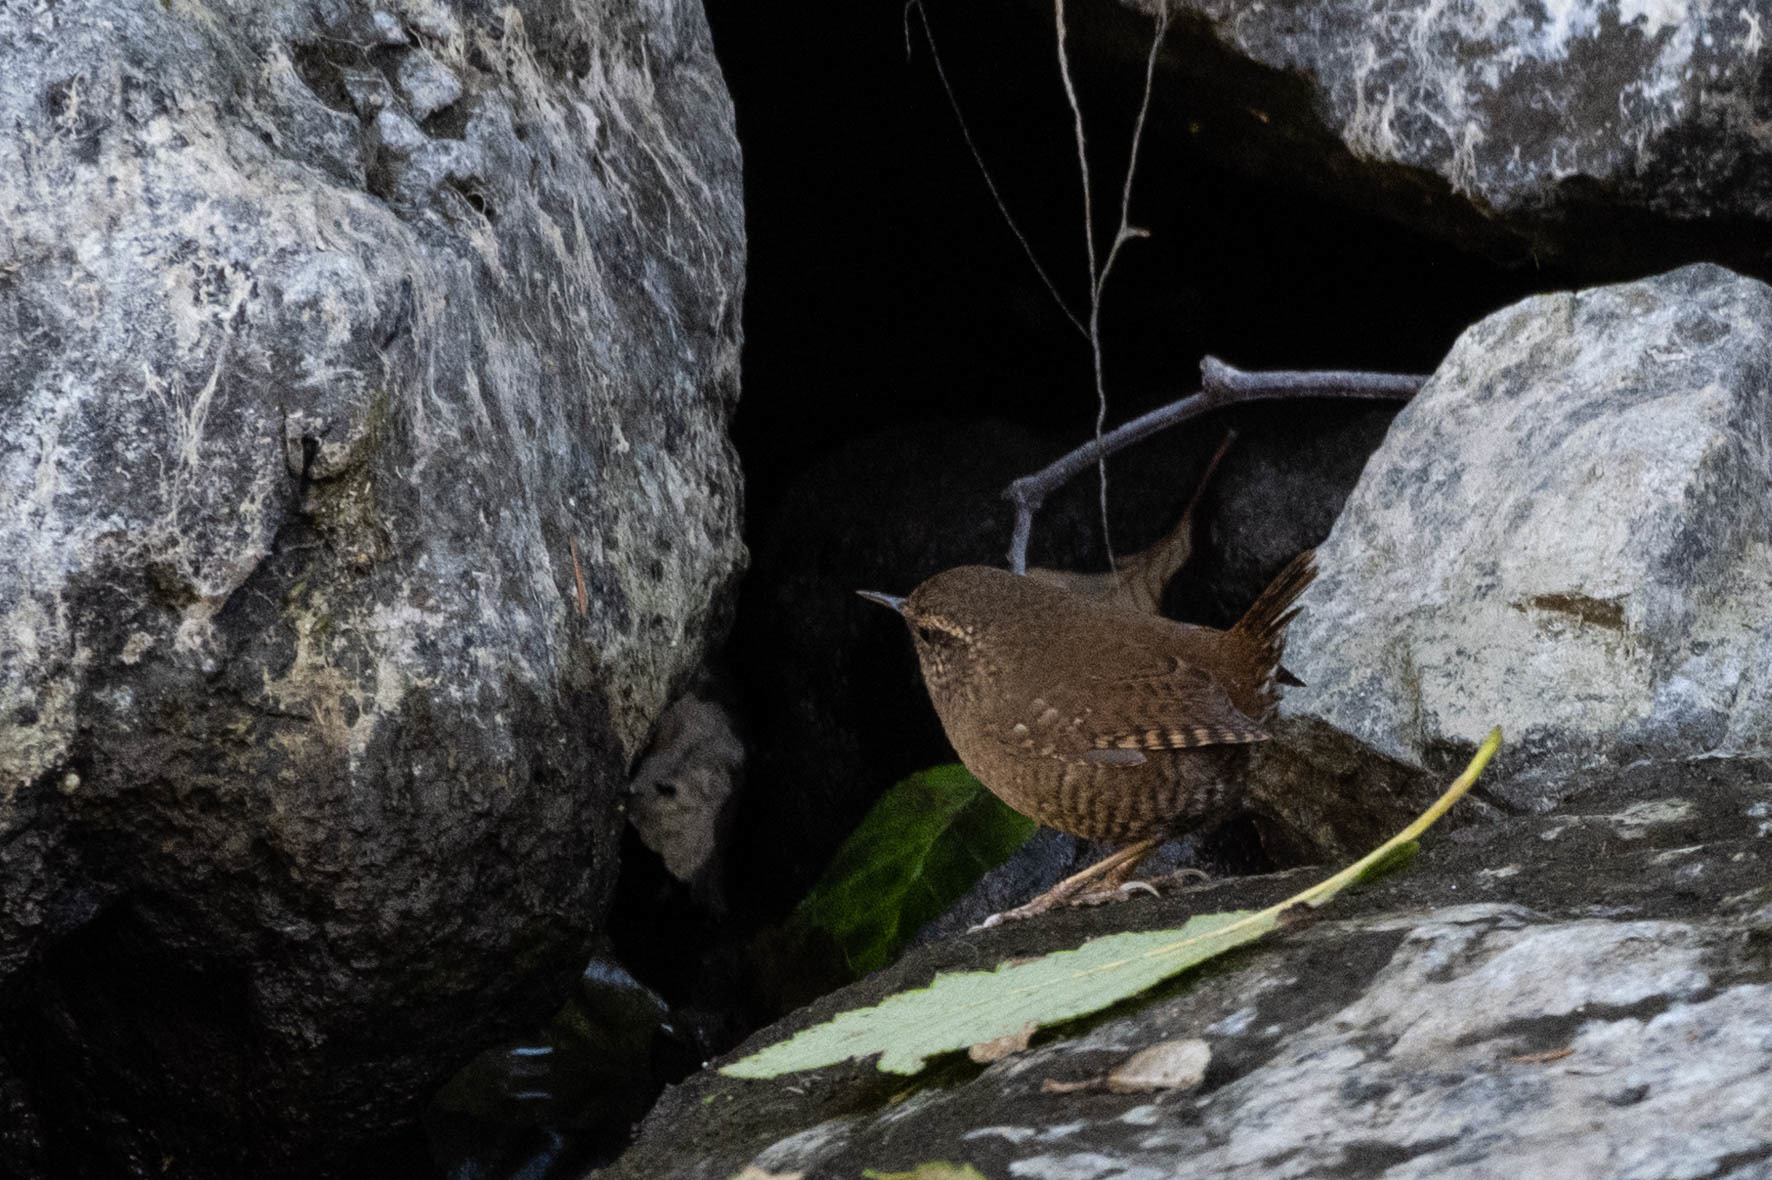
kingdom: Animalia
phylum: Chordata
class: Aves
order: Passeriformes
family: Troglodytidae
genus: Troglodytes
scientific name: Troglodytes pacificus
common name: Pacific wren
